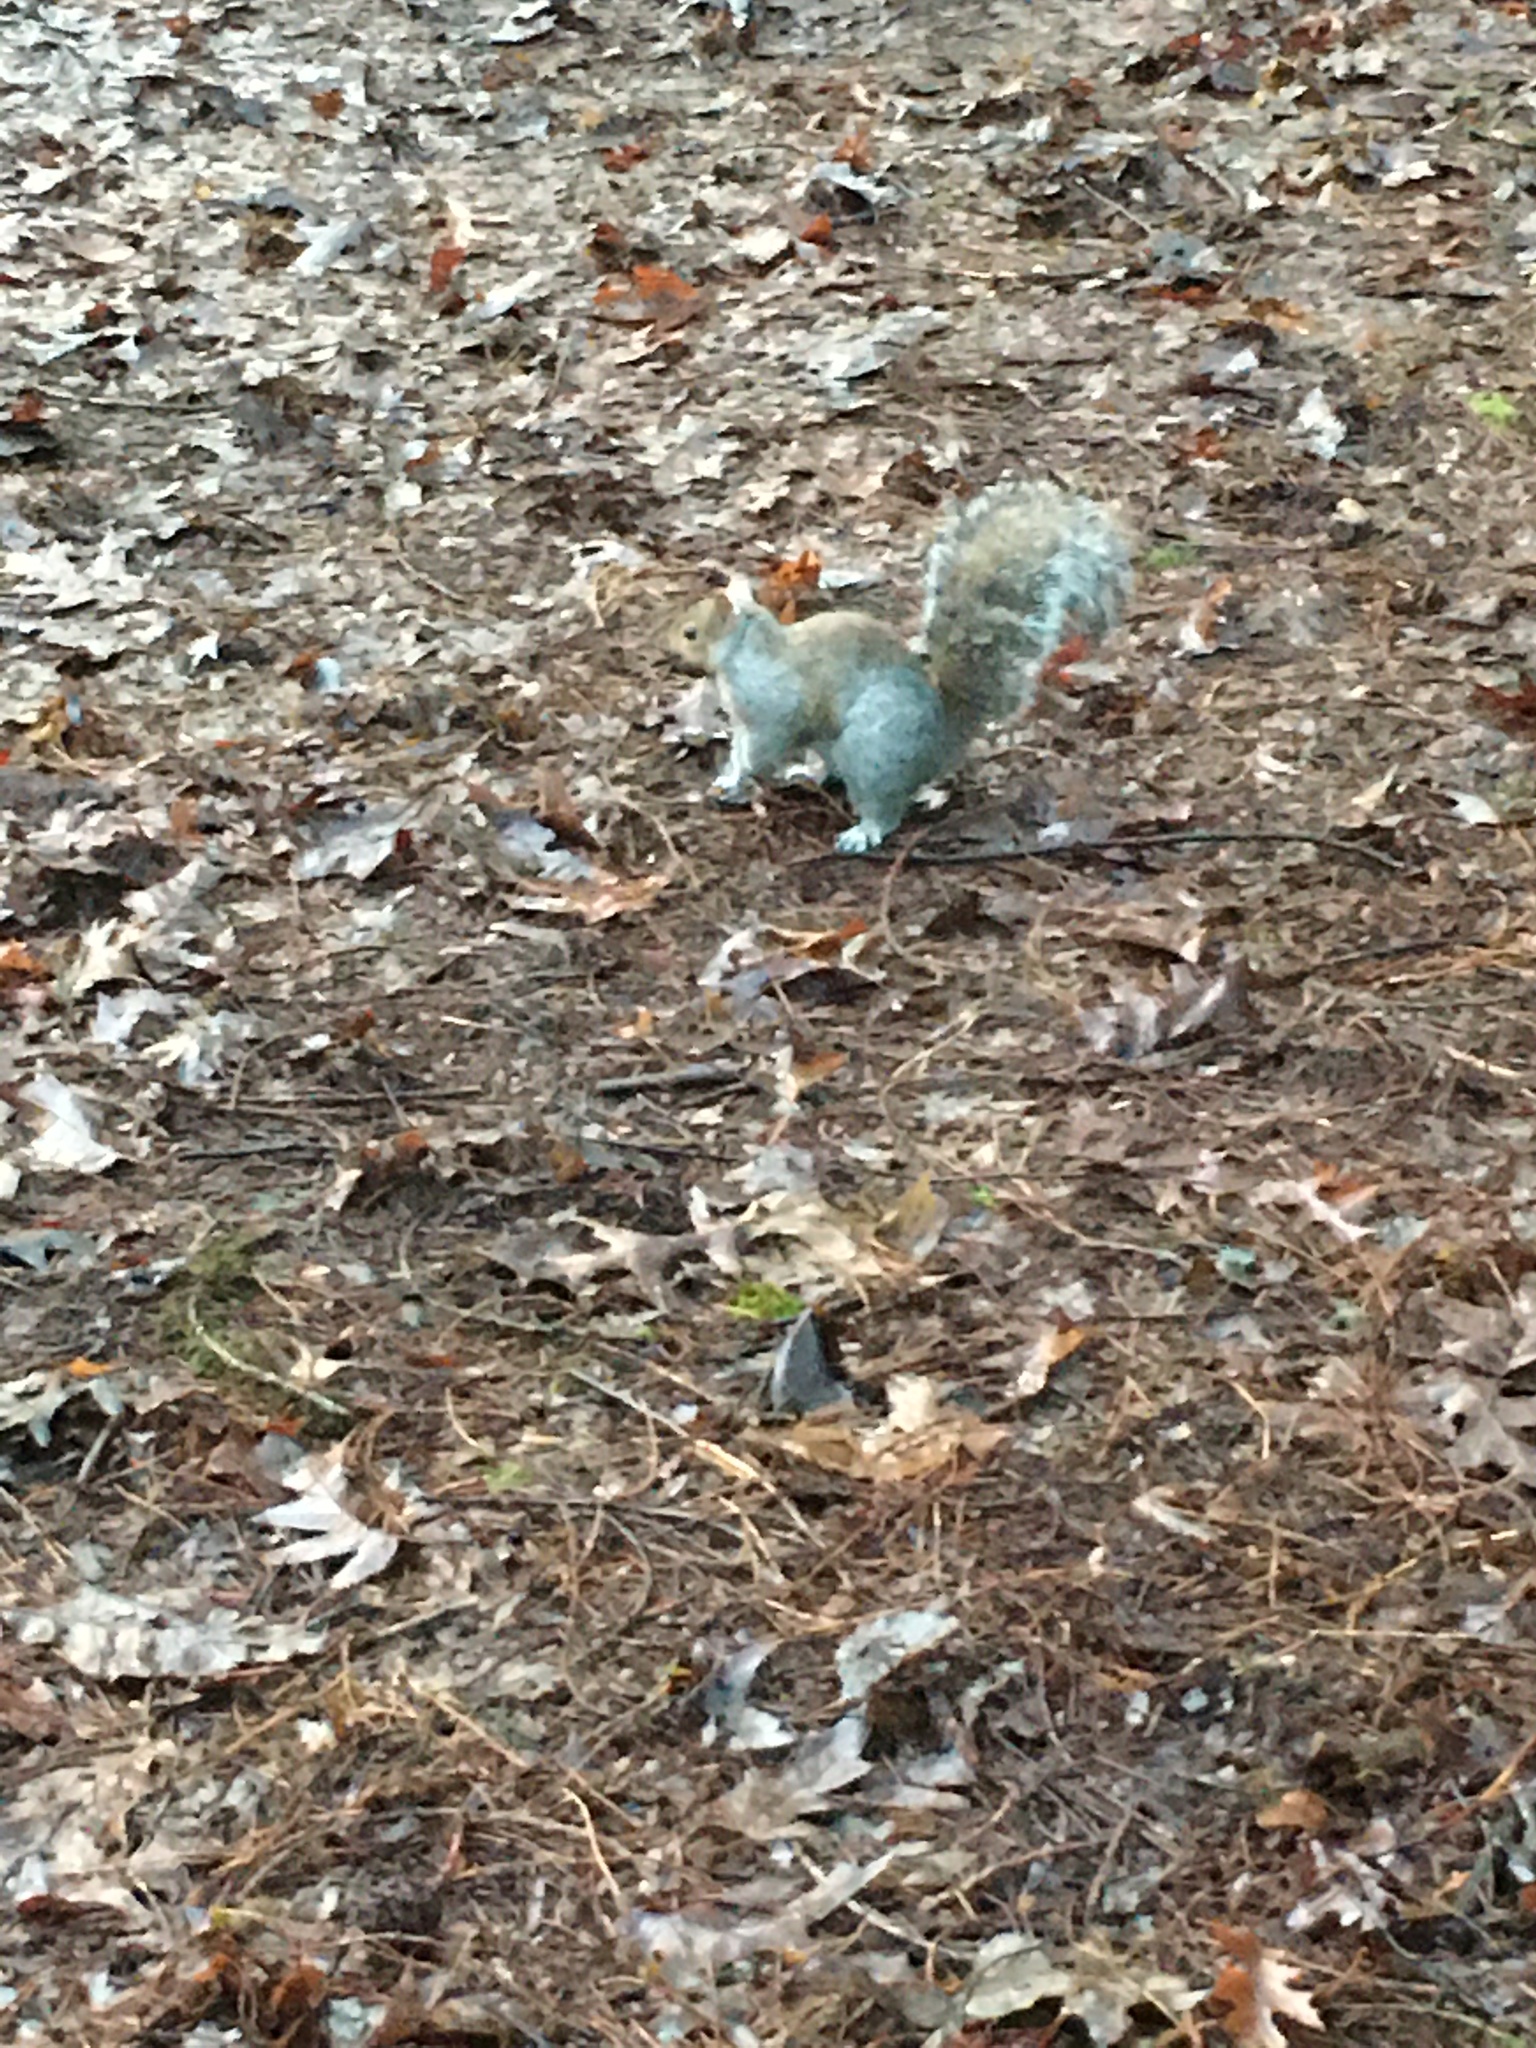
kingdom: Animalia
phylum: Chordata
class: Mammalia
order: Rodentia
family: Sciuridae
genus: Sciurus
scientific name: Sciurus carolinensis
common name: Eastern gray squirrel
